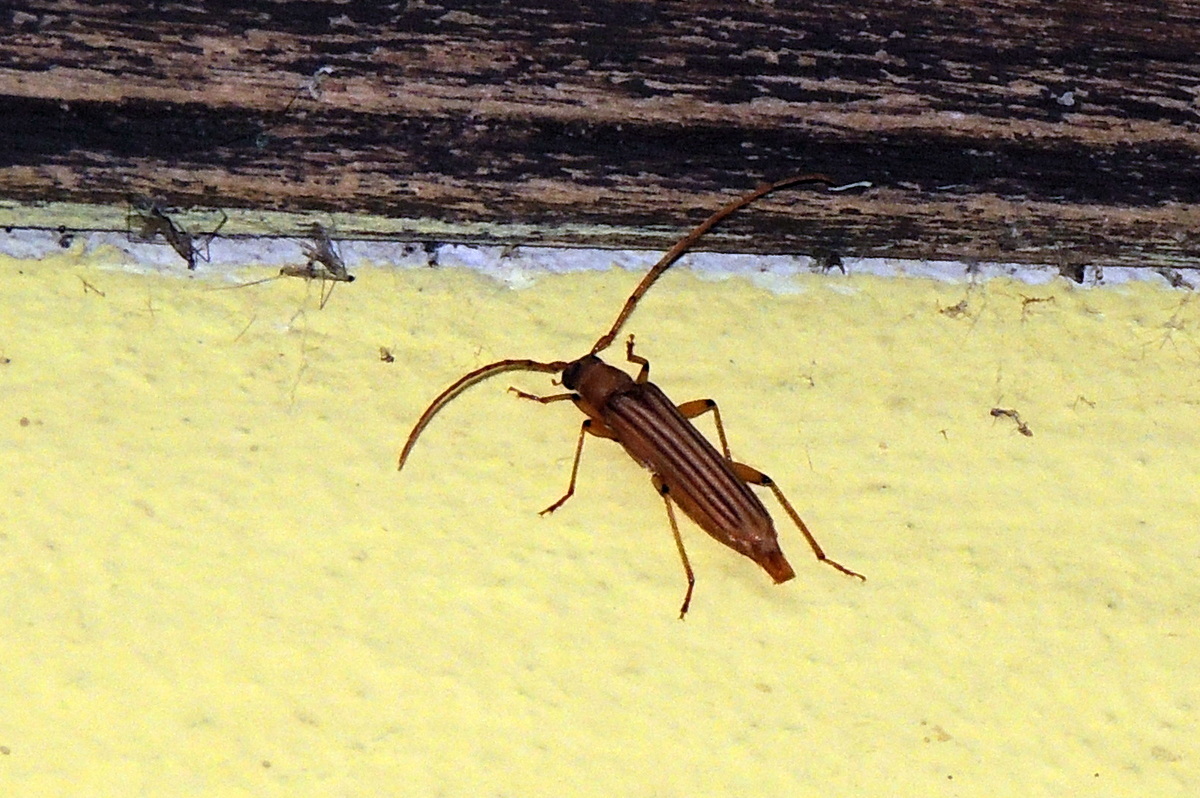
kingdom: Animalia
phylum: Arthropoda
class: Insecta
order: Coleoptera
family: Cerambycidae
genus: Malacopterus
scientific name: Malacopterus tenellus
